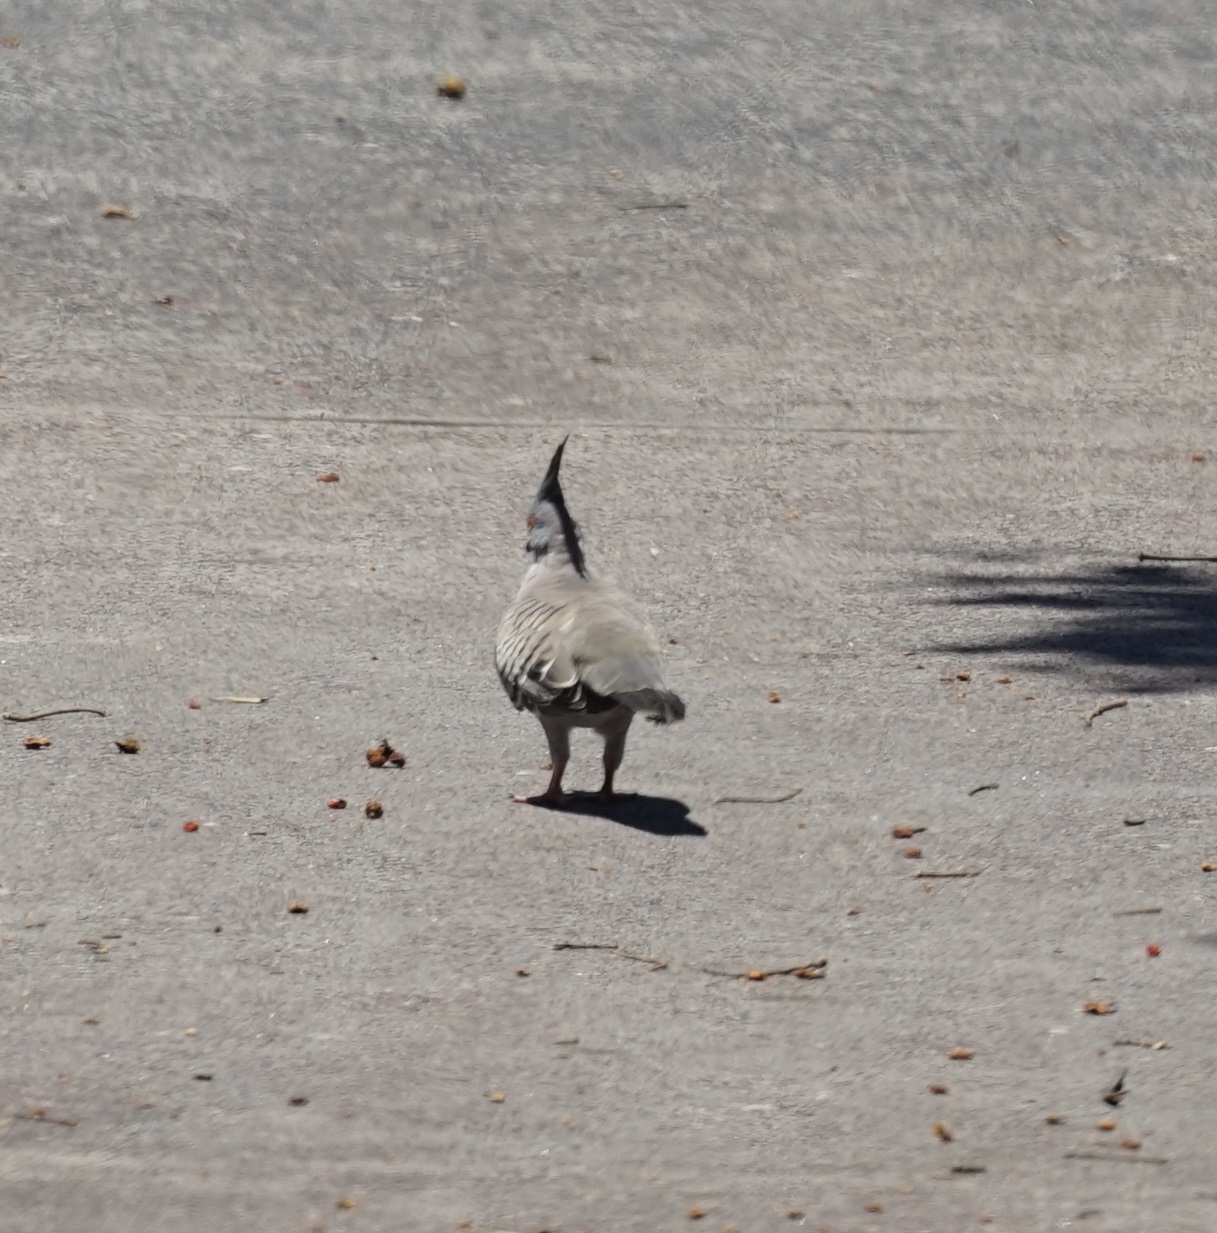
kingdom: Animalia
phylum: Chordata
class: Aves
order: Columbiformes
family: Columbidae
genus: Ocyphaps
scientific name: Ocyphaps lophotes
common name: Crested pigeon
